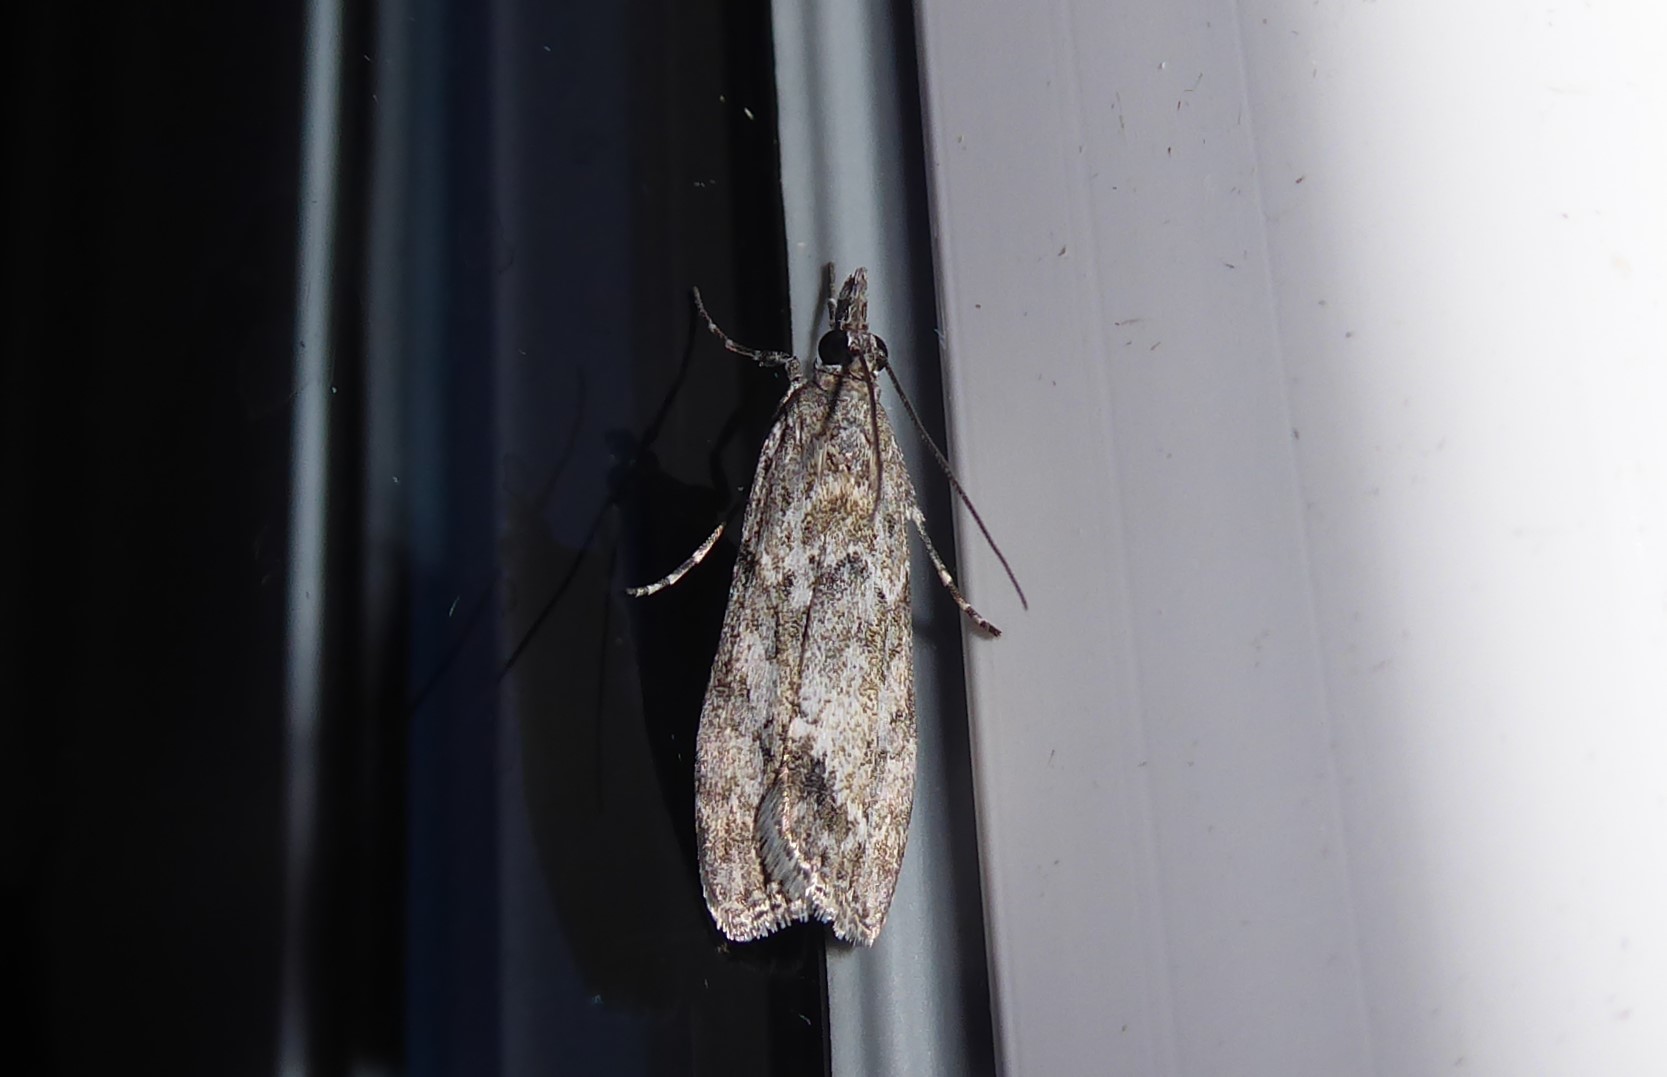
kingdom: Animalia
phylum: Arthropoda
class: Insecta
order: Lepidoptera
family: Crambidae
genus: Eudonia
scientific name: Eudonia rakaiensis
